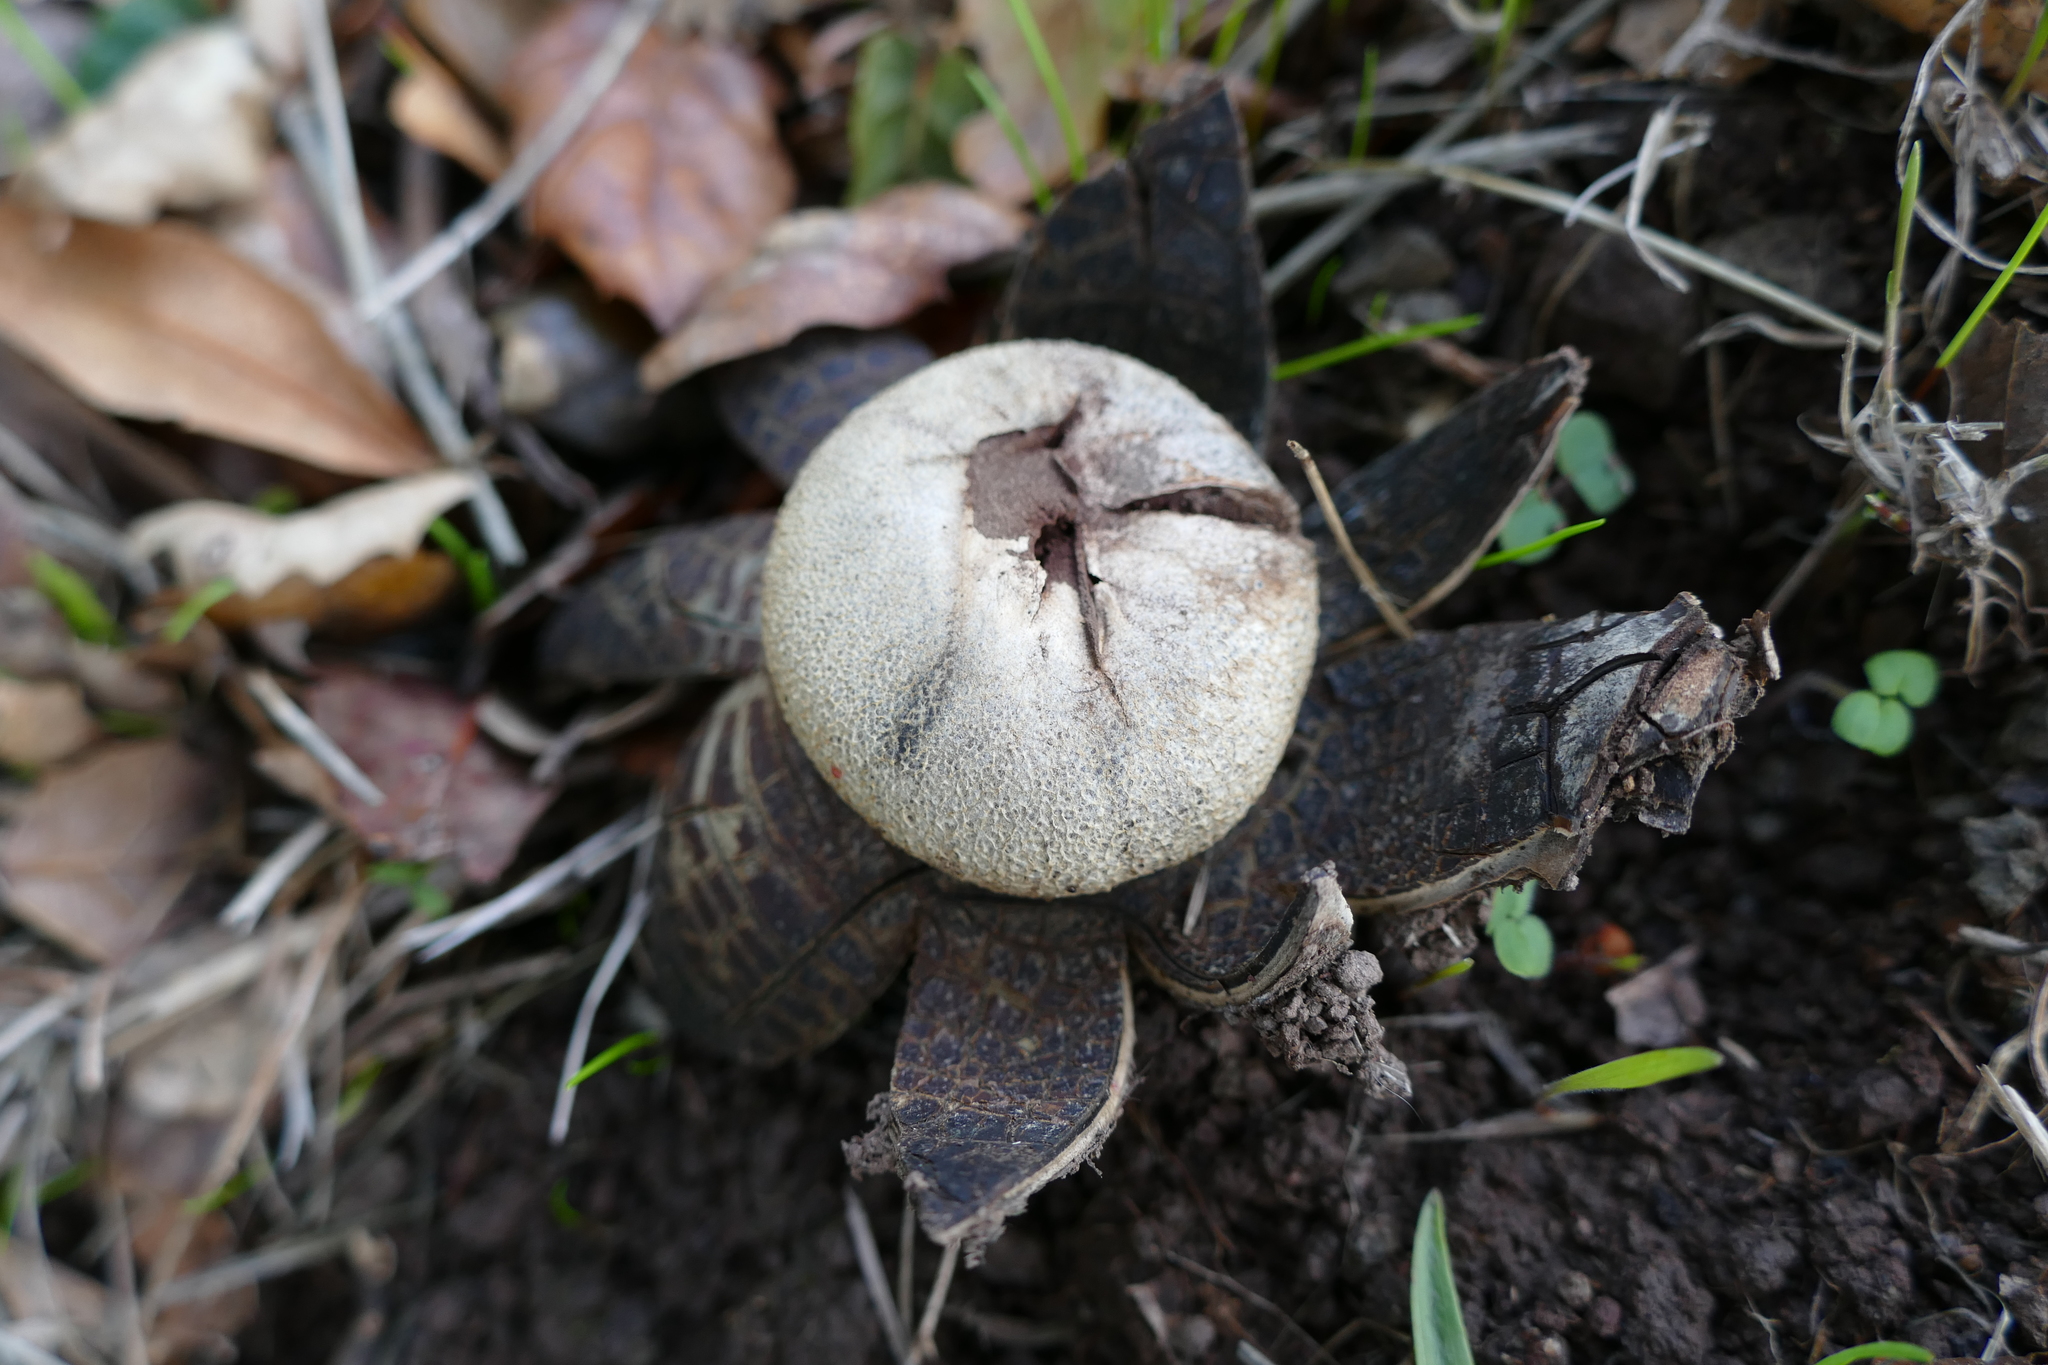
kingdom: Fungi
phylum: Basidiomycota
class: Agaricomycetes
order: Boletales
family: Diplocystidiaceae
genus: Astraeus
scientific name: Astraeus hygrometricus
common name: Barometer earthstar
